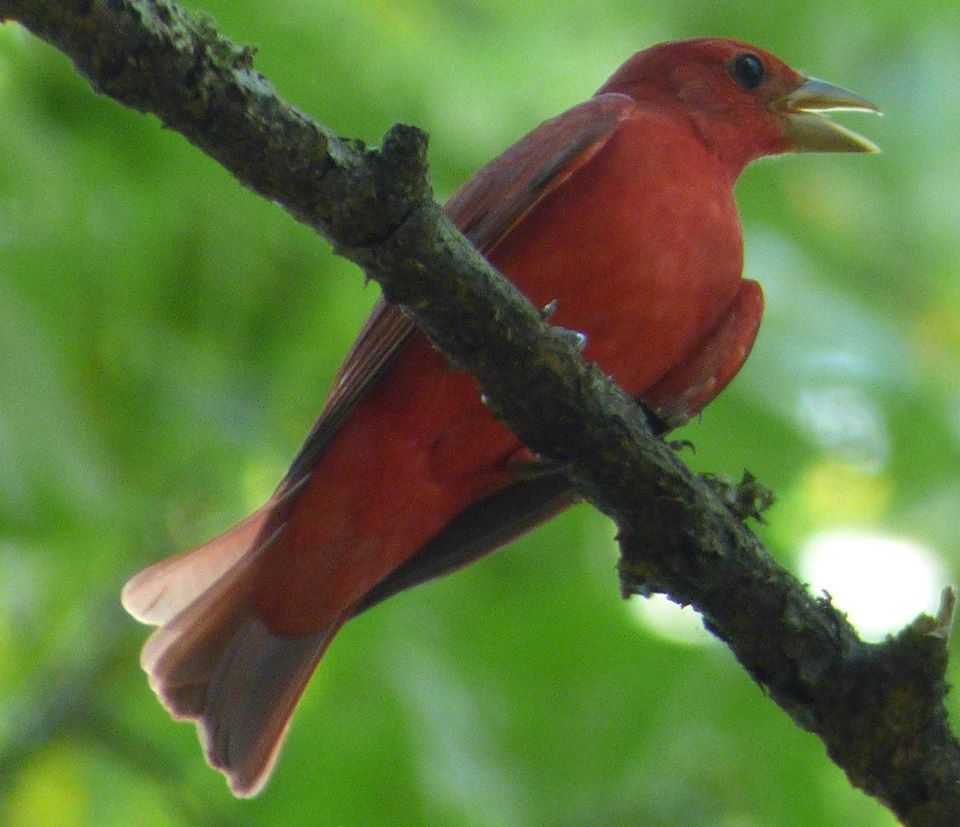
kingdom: Animalia
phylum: Chordata
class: Aves
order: Passeriformes
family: Cardinalidae
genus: Piranga
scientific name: Piranga rubra
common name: Summer tanager
